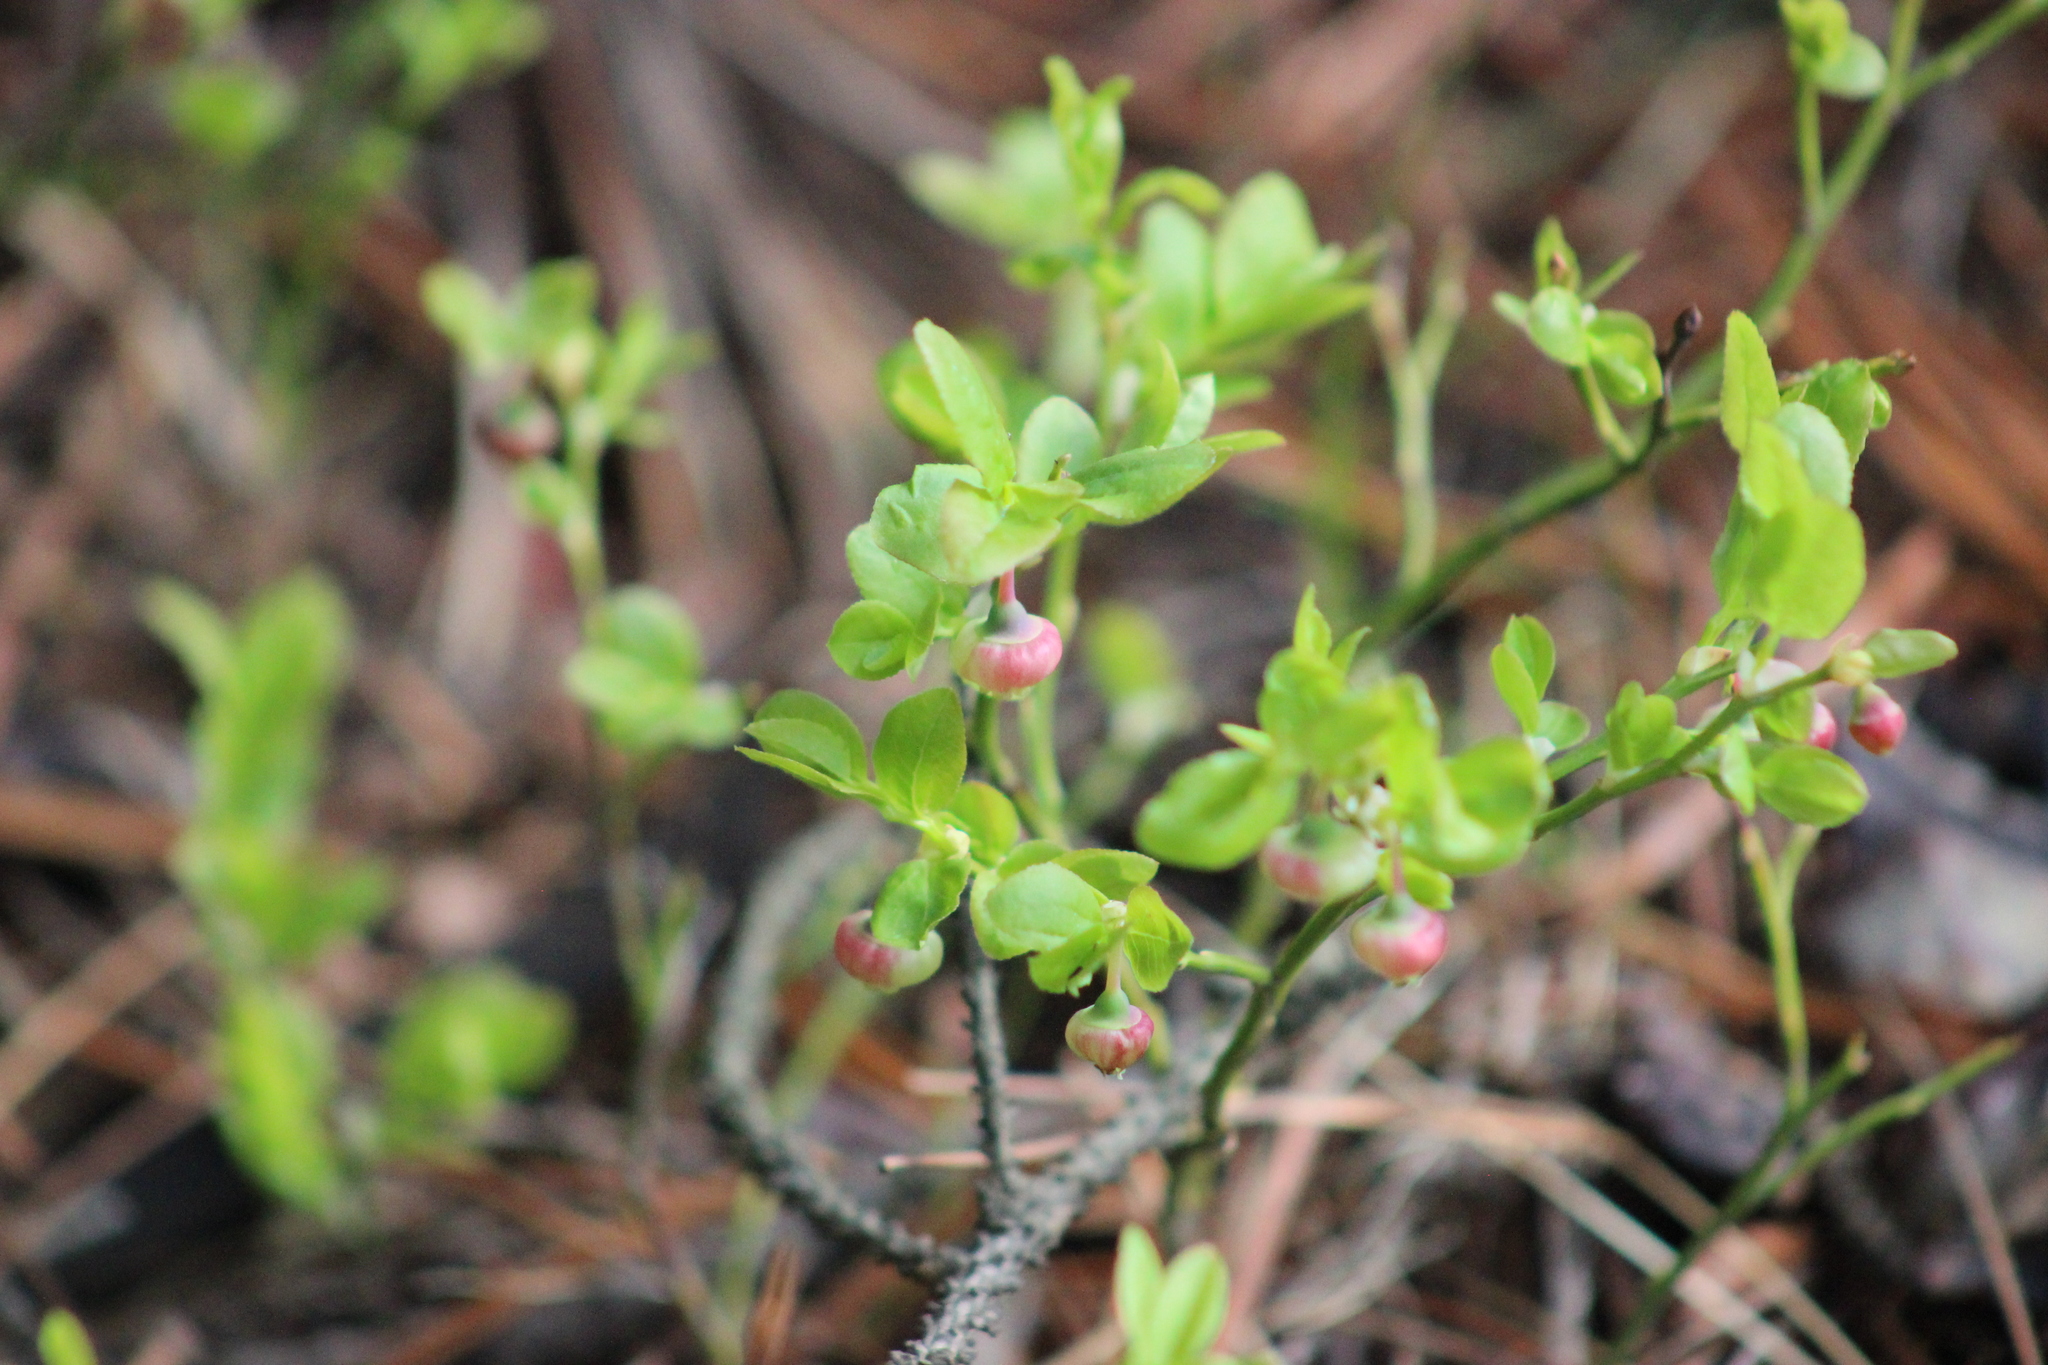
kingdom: Plantae
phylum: Tracheophyta
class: Magnoliopsida
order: Ericales
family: Ericaceae
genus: Vaccinium
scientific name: Vaccinium myrtillus
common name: Bilberry
